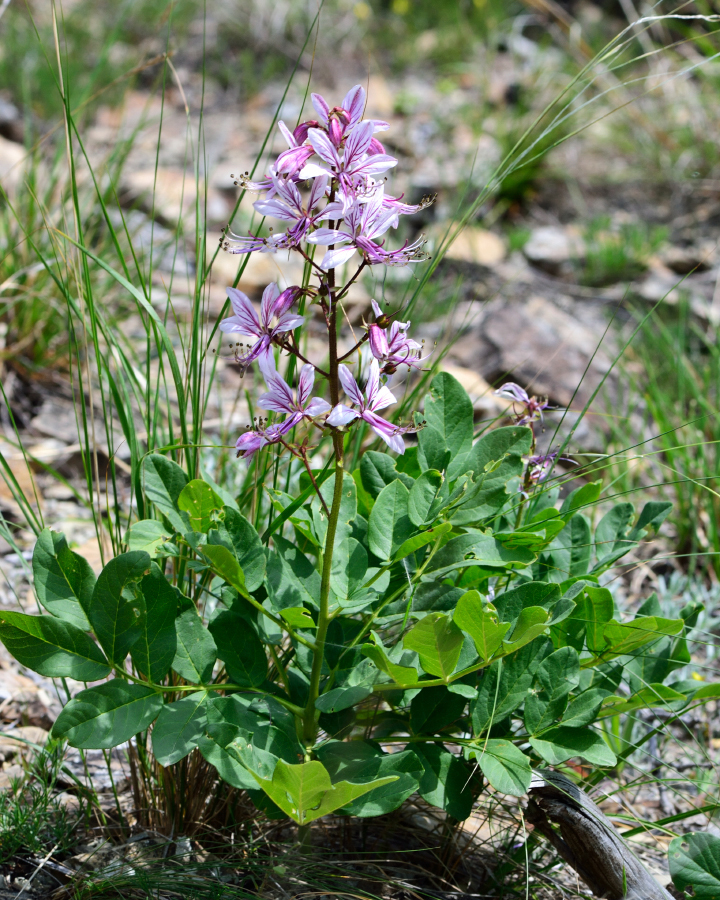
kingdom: Plantae
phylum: Tracheophyta
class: Magnoliopsida
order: Sapindales
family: Rutaceae
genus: Dictamnus
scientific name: Dictamnus albus
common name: Gasplant
